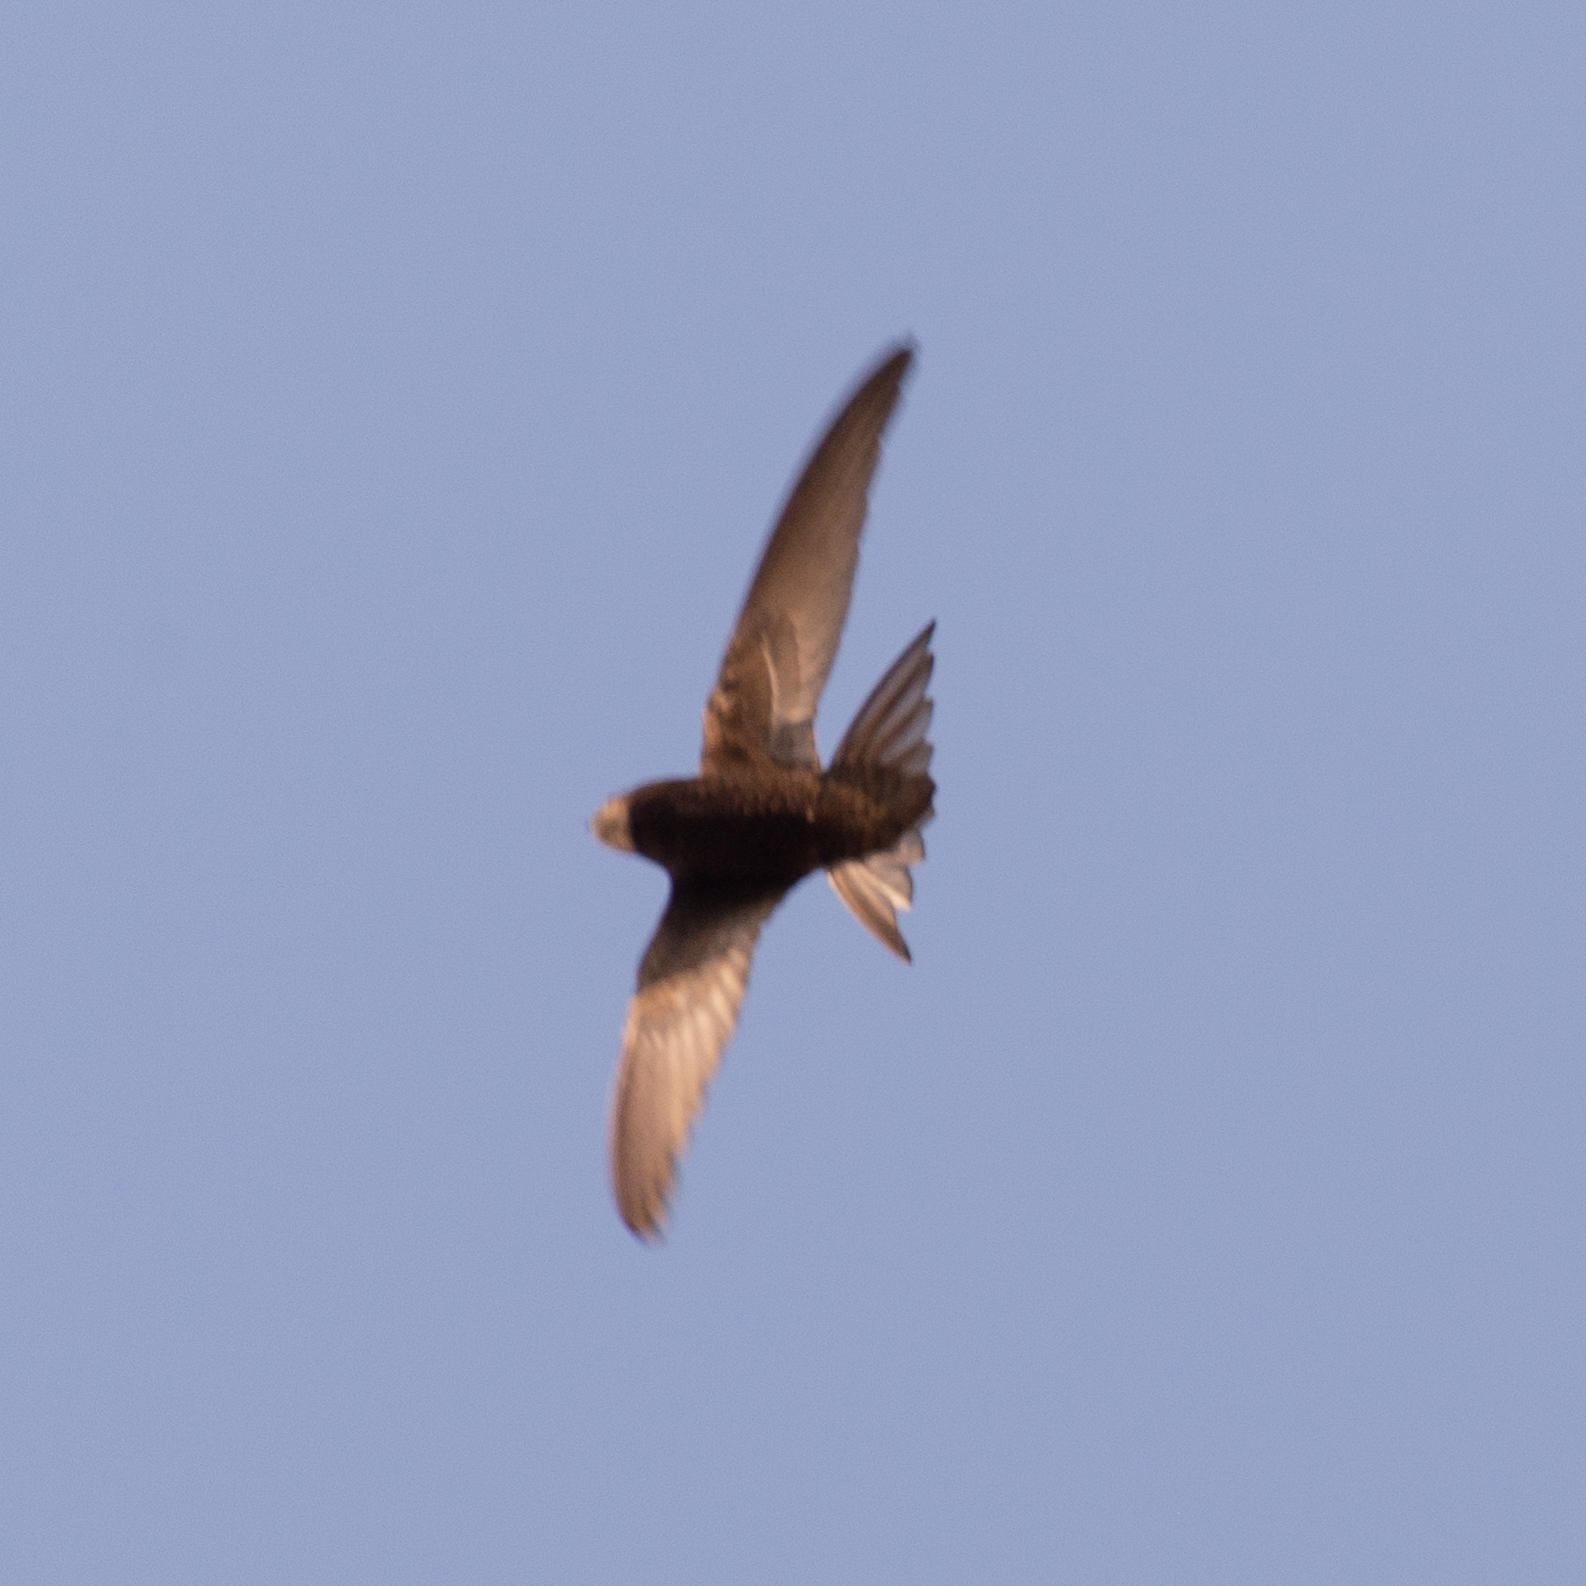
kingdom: Animalia
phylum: Chordata
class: Aves
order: Apodiformes
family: Apodidae
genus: Apus
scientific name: Apus apus
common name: Common swift
